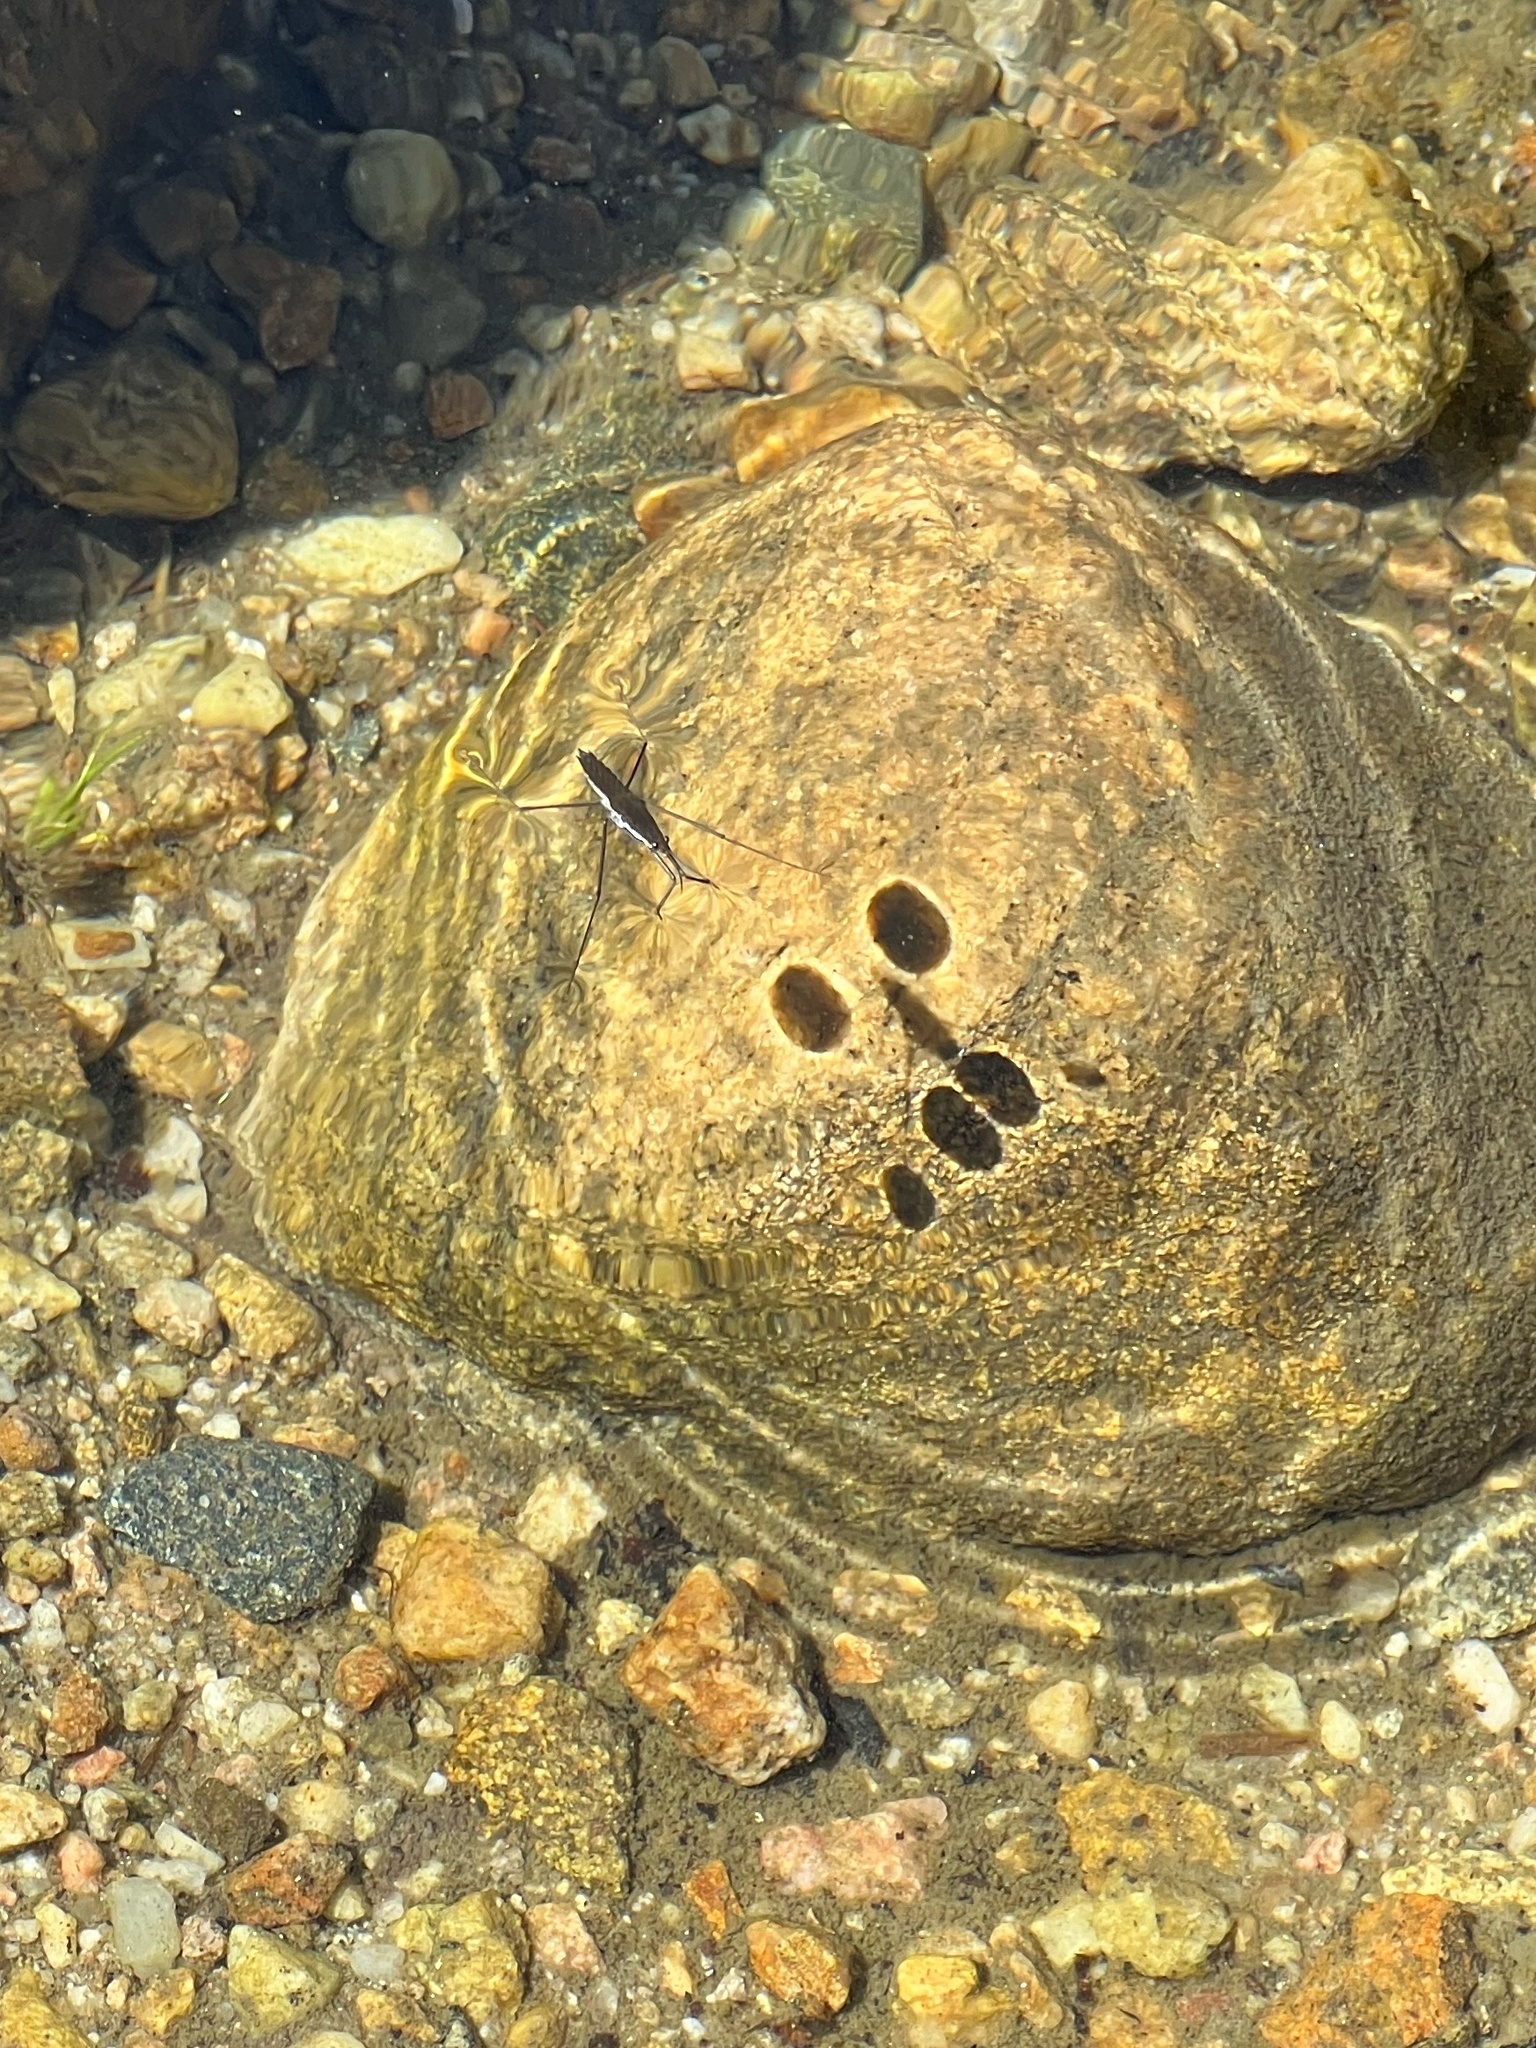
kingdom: Animalia
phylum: Arthropoda
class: Insecta
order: Hemiptera
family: Gerridae
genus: Aquarius
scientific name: Aquarius remigis
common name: Common water strider
